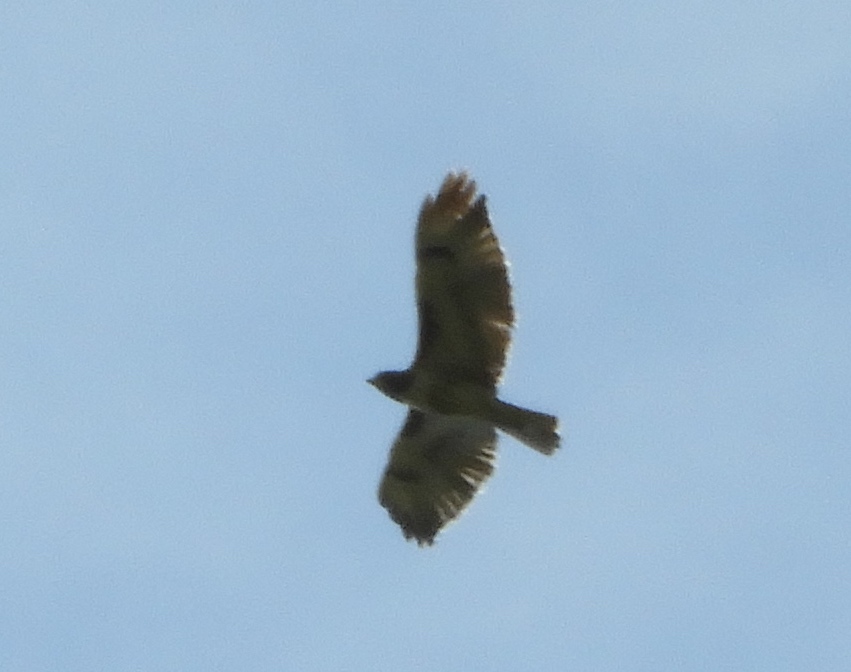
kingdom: Animalia
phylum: Chordata
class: Aves
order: Accipitriformes
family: Accipitridae
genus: Buteo
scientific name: Buteo jamaicensis
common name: Red-tailed hawk
